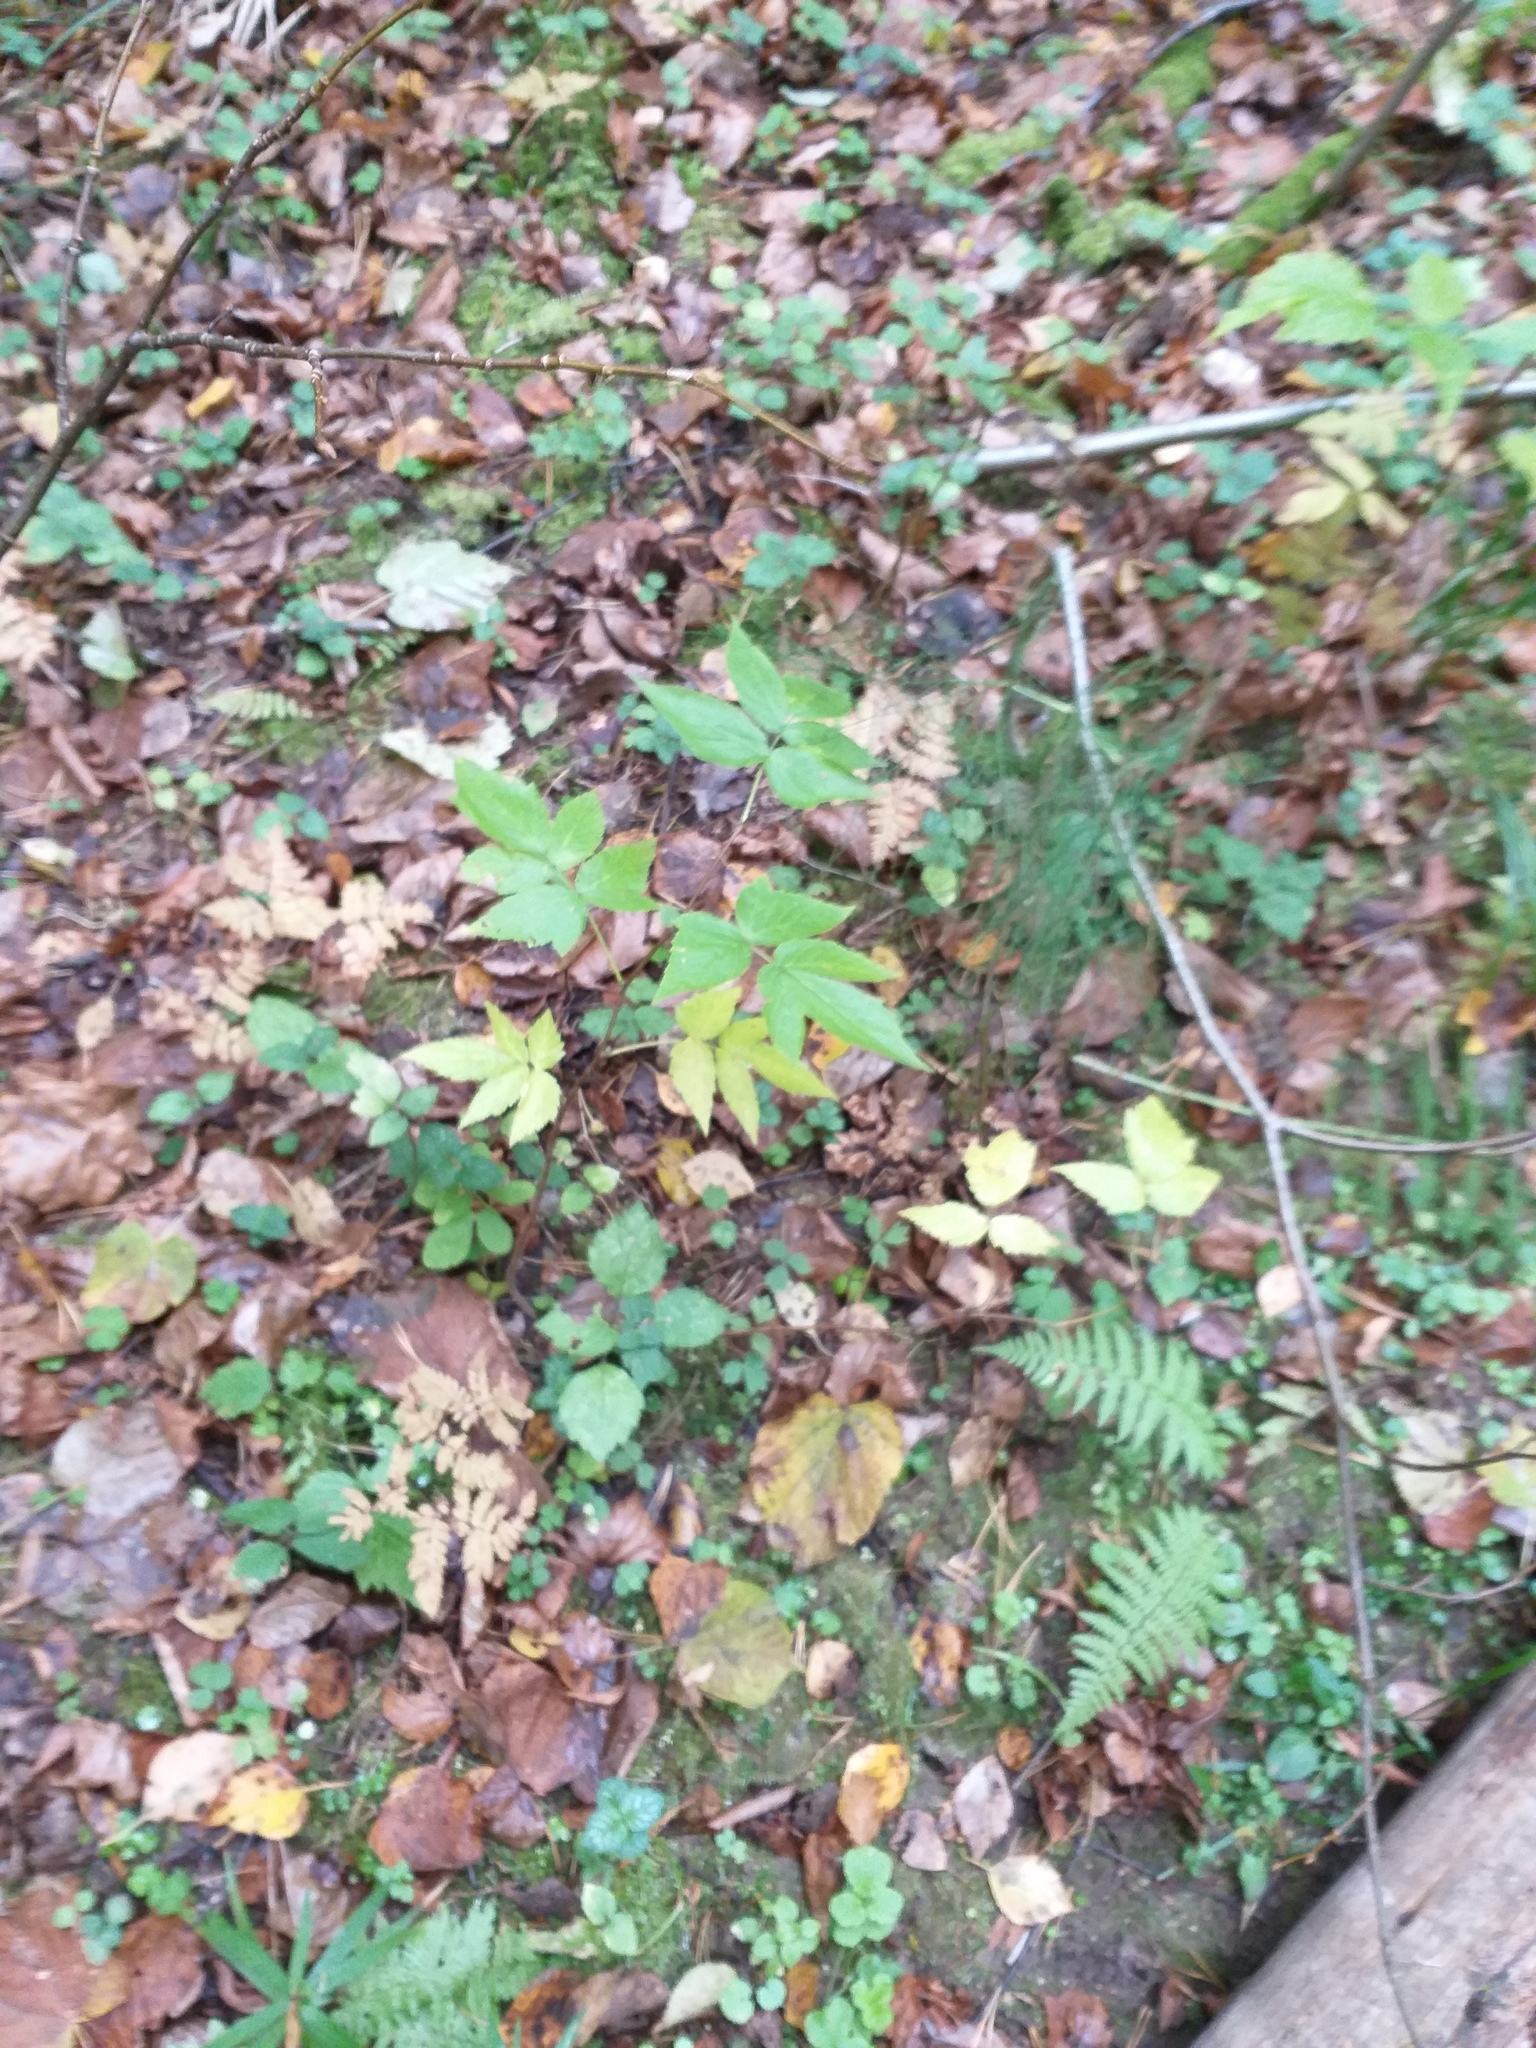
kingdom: Plantae
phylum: Tracheophyta
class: Magnoliopsida
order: Rosales
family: Rosaceae
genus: Rubus
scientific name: Rubus idaeus
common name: Raspberry
